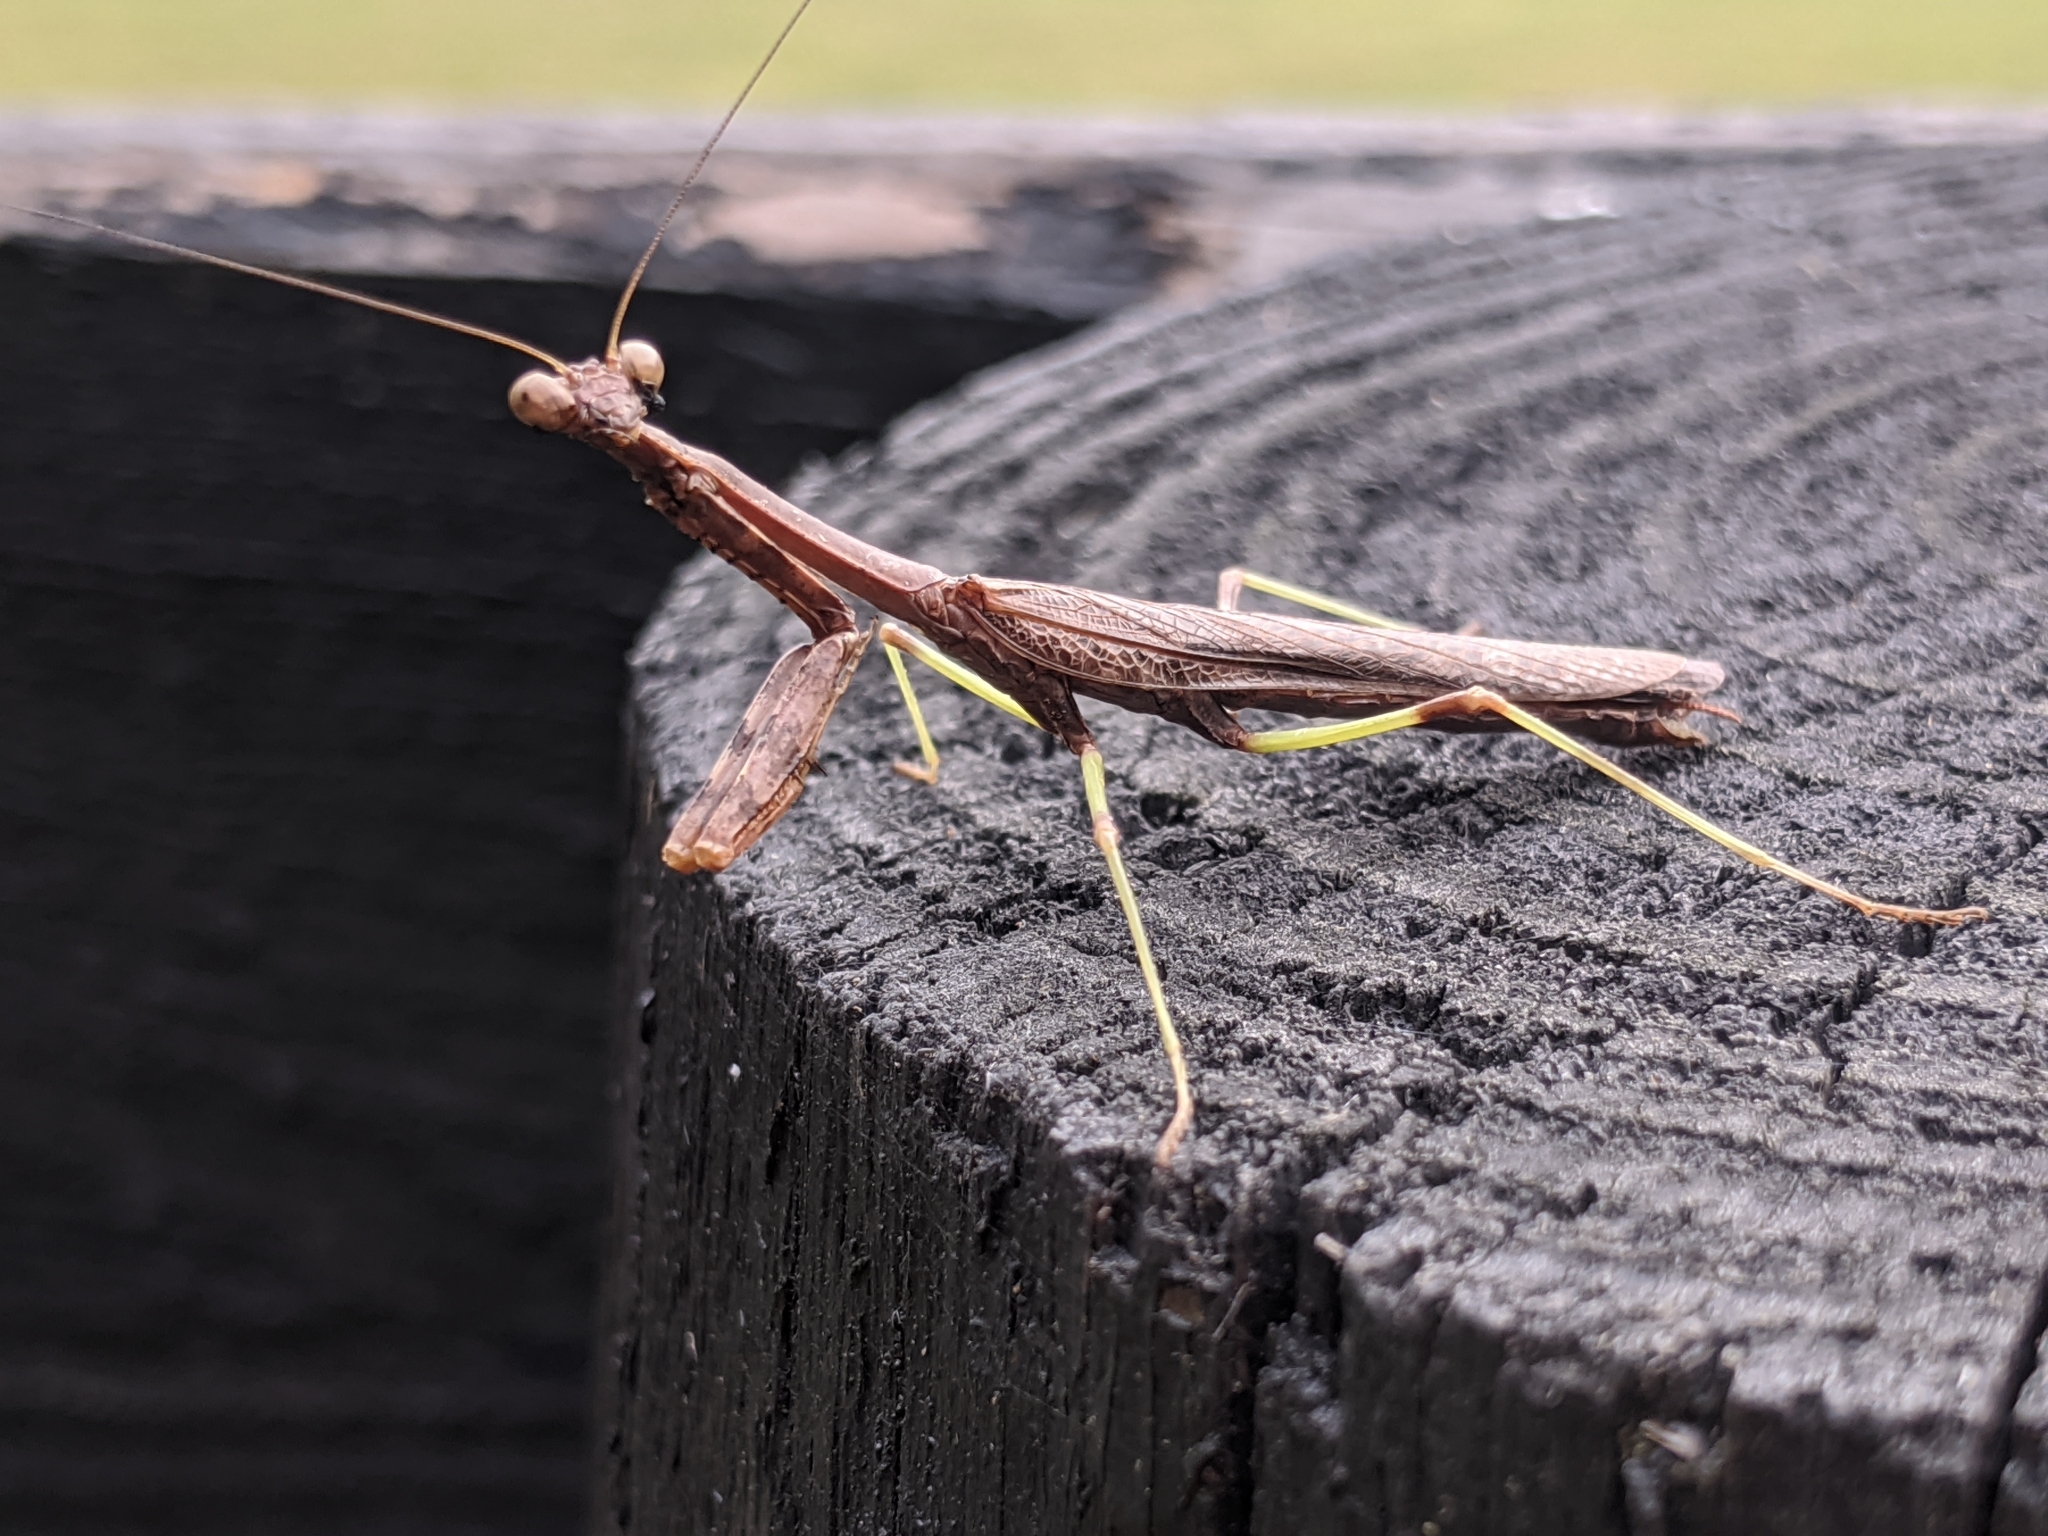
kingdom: Animalia
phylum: Arthropoda
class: Insecta
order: Mantodea
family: Mantidae
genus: Stagmomantis
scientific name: Stagmomantis carolina
